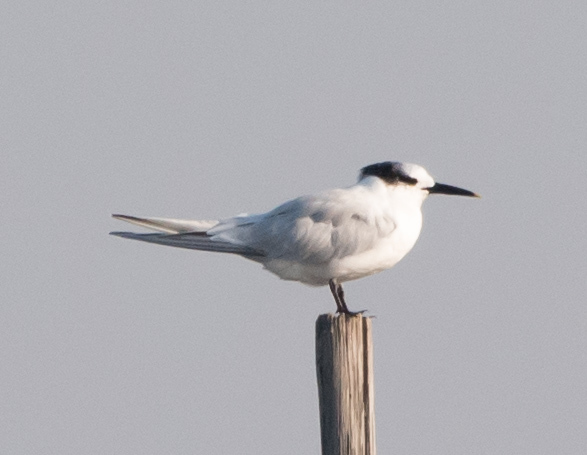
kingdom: Animalia
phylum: Chordata
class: Aves
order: Charadriiformes
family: Laridae
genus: Thalasseus
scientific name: Thalasseus sandvicensis
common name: Sandwich tern
